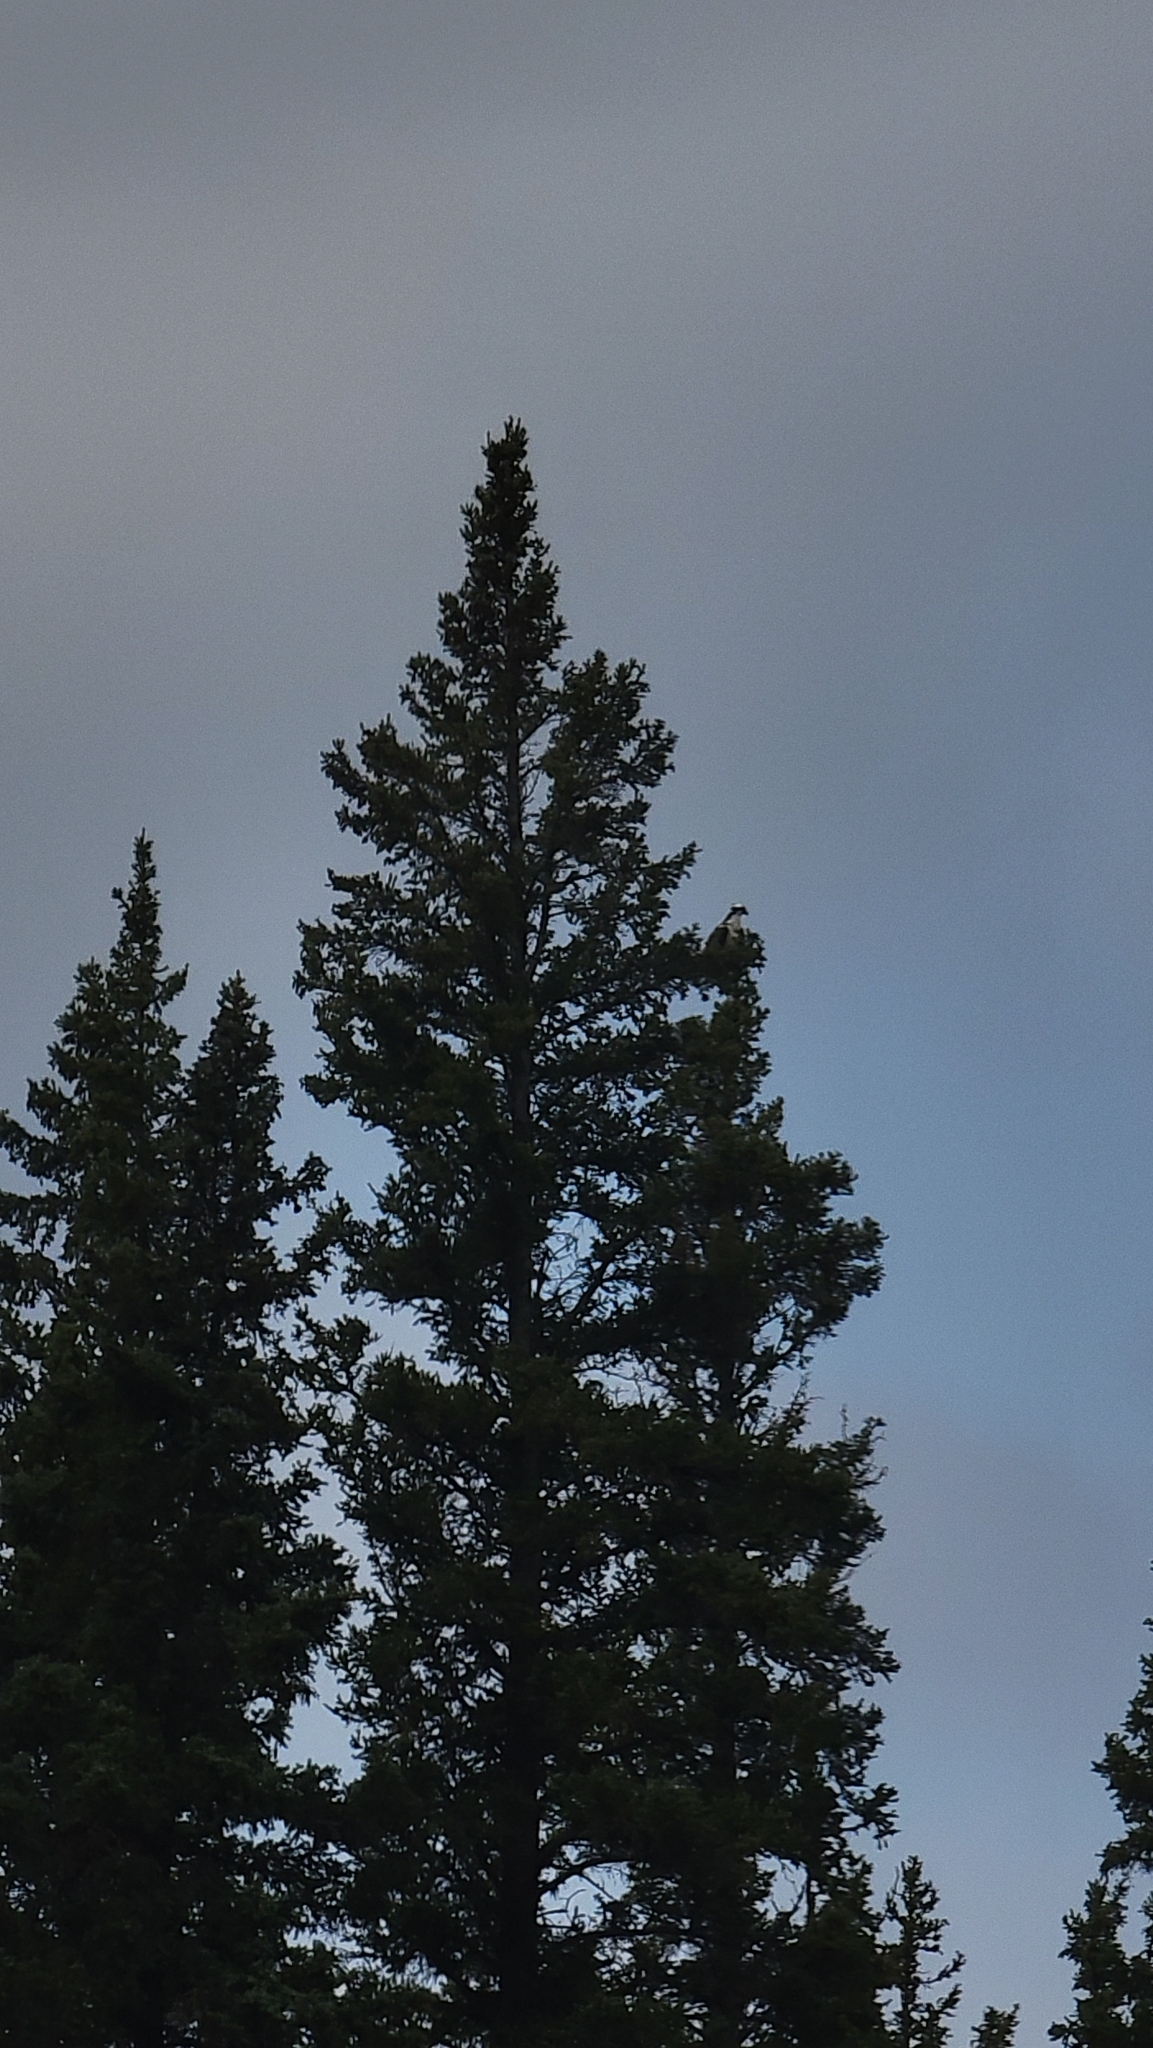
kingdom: Animalia
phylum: Chordata
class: Aves
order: Accipitriformes
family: Pandionidae
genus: Pandion
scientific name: Pandion haliaetus
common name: Osprey
